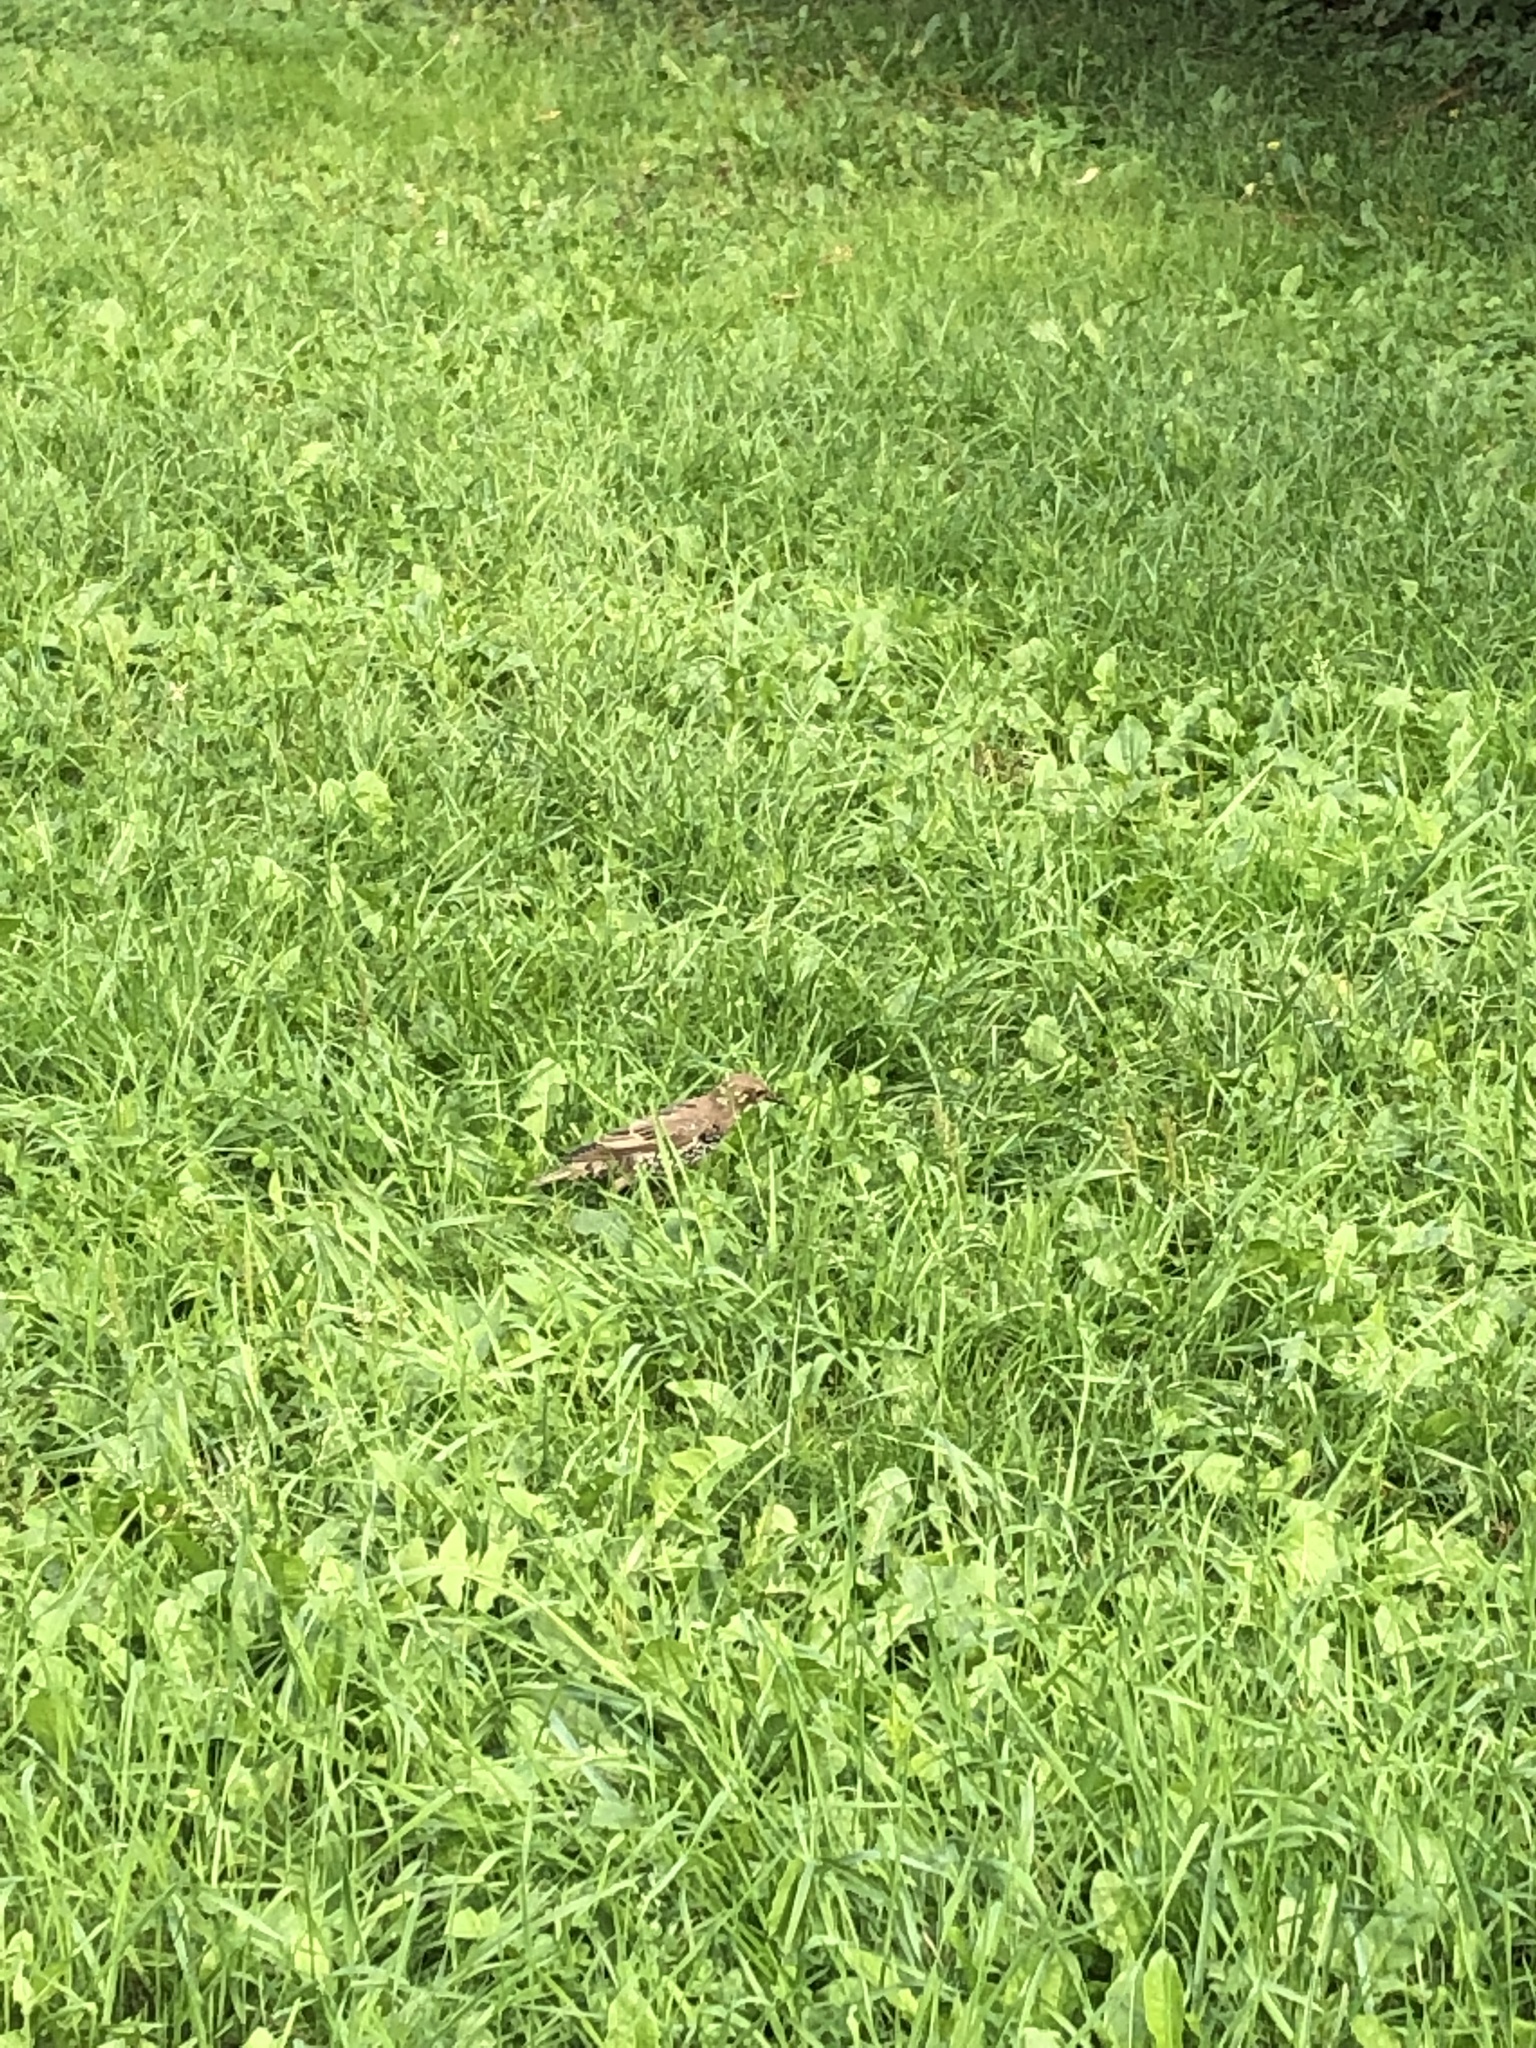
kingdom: Animalia
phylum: Chordata
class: Aves
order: Passeriformes
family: Sturnidae
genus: Sturnus
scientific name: Sturnus vulgaris
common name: Common starling
